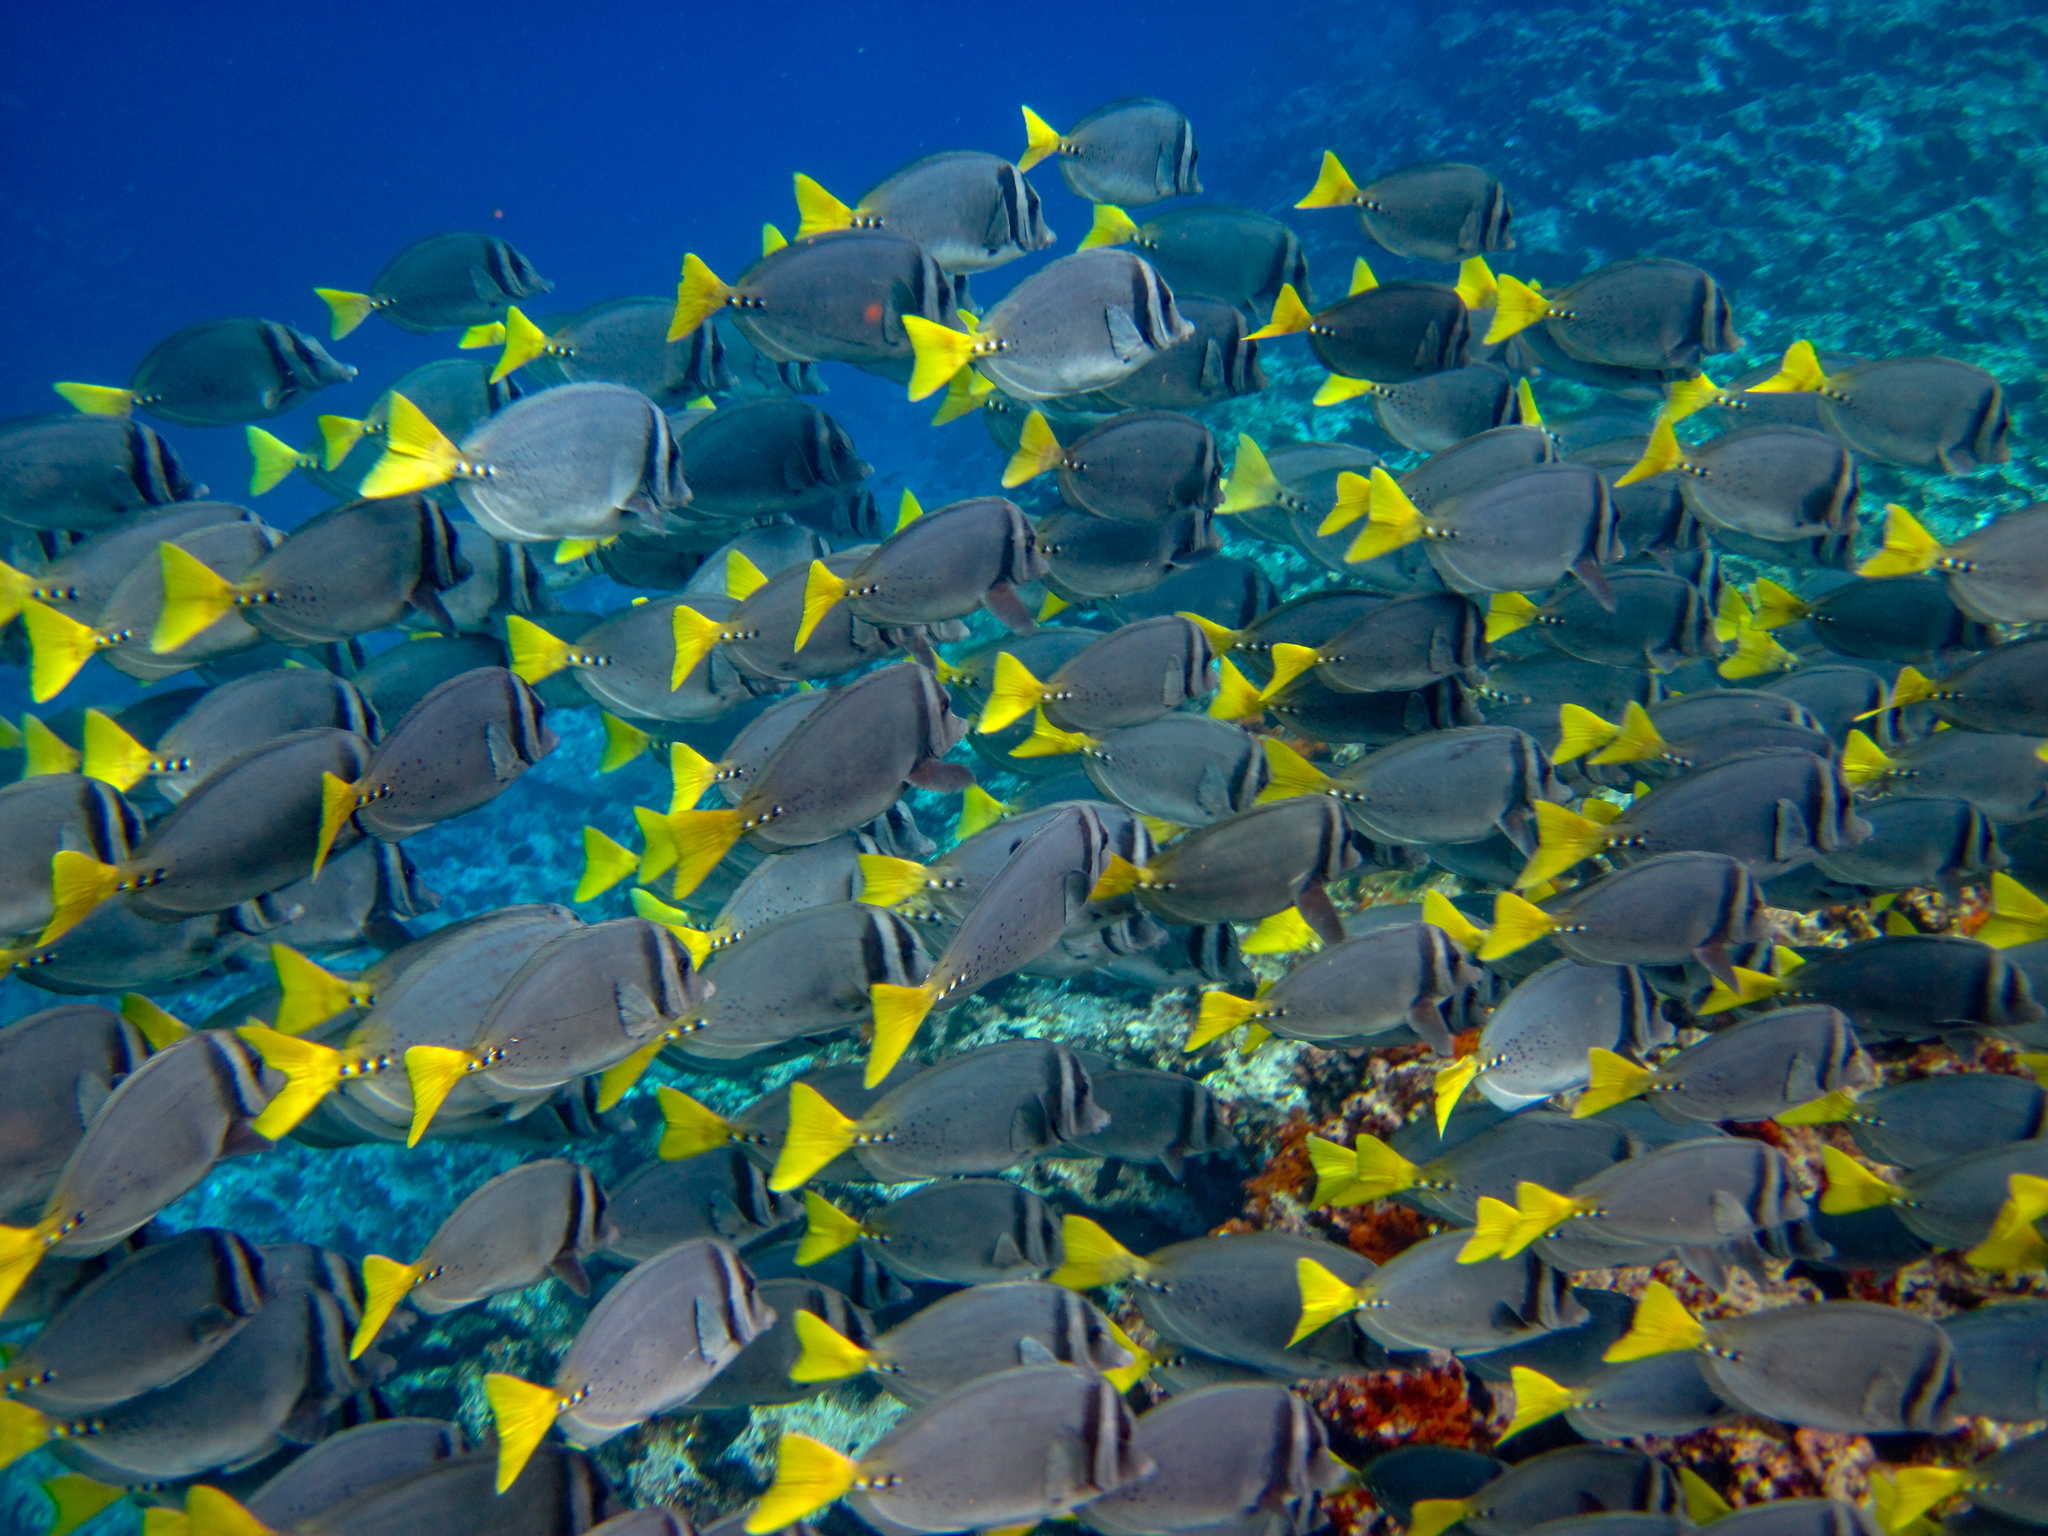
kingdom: Animalia
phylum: Chordata
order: Perciformes
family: Acanthuridae
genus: Prionurus
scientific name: Prionurus laticlavius
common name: Razor surgeonfish
